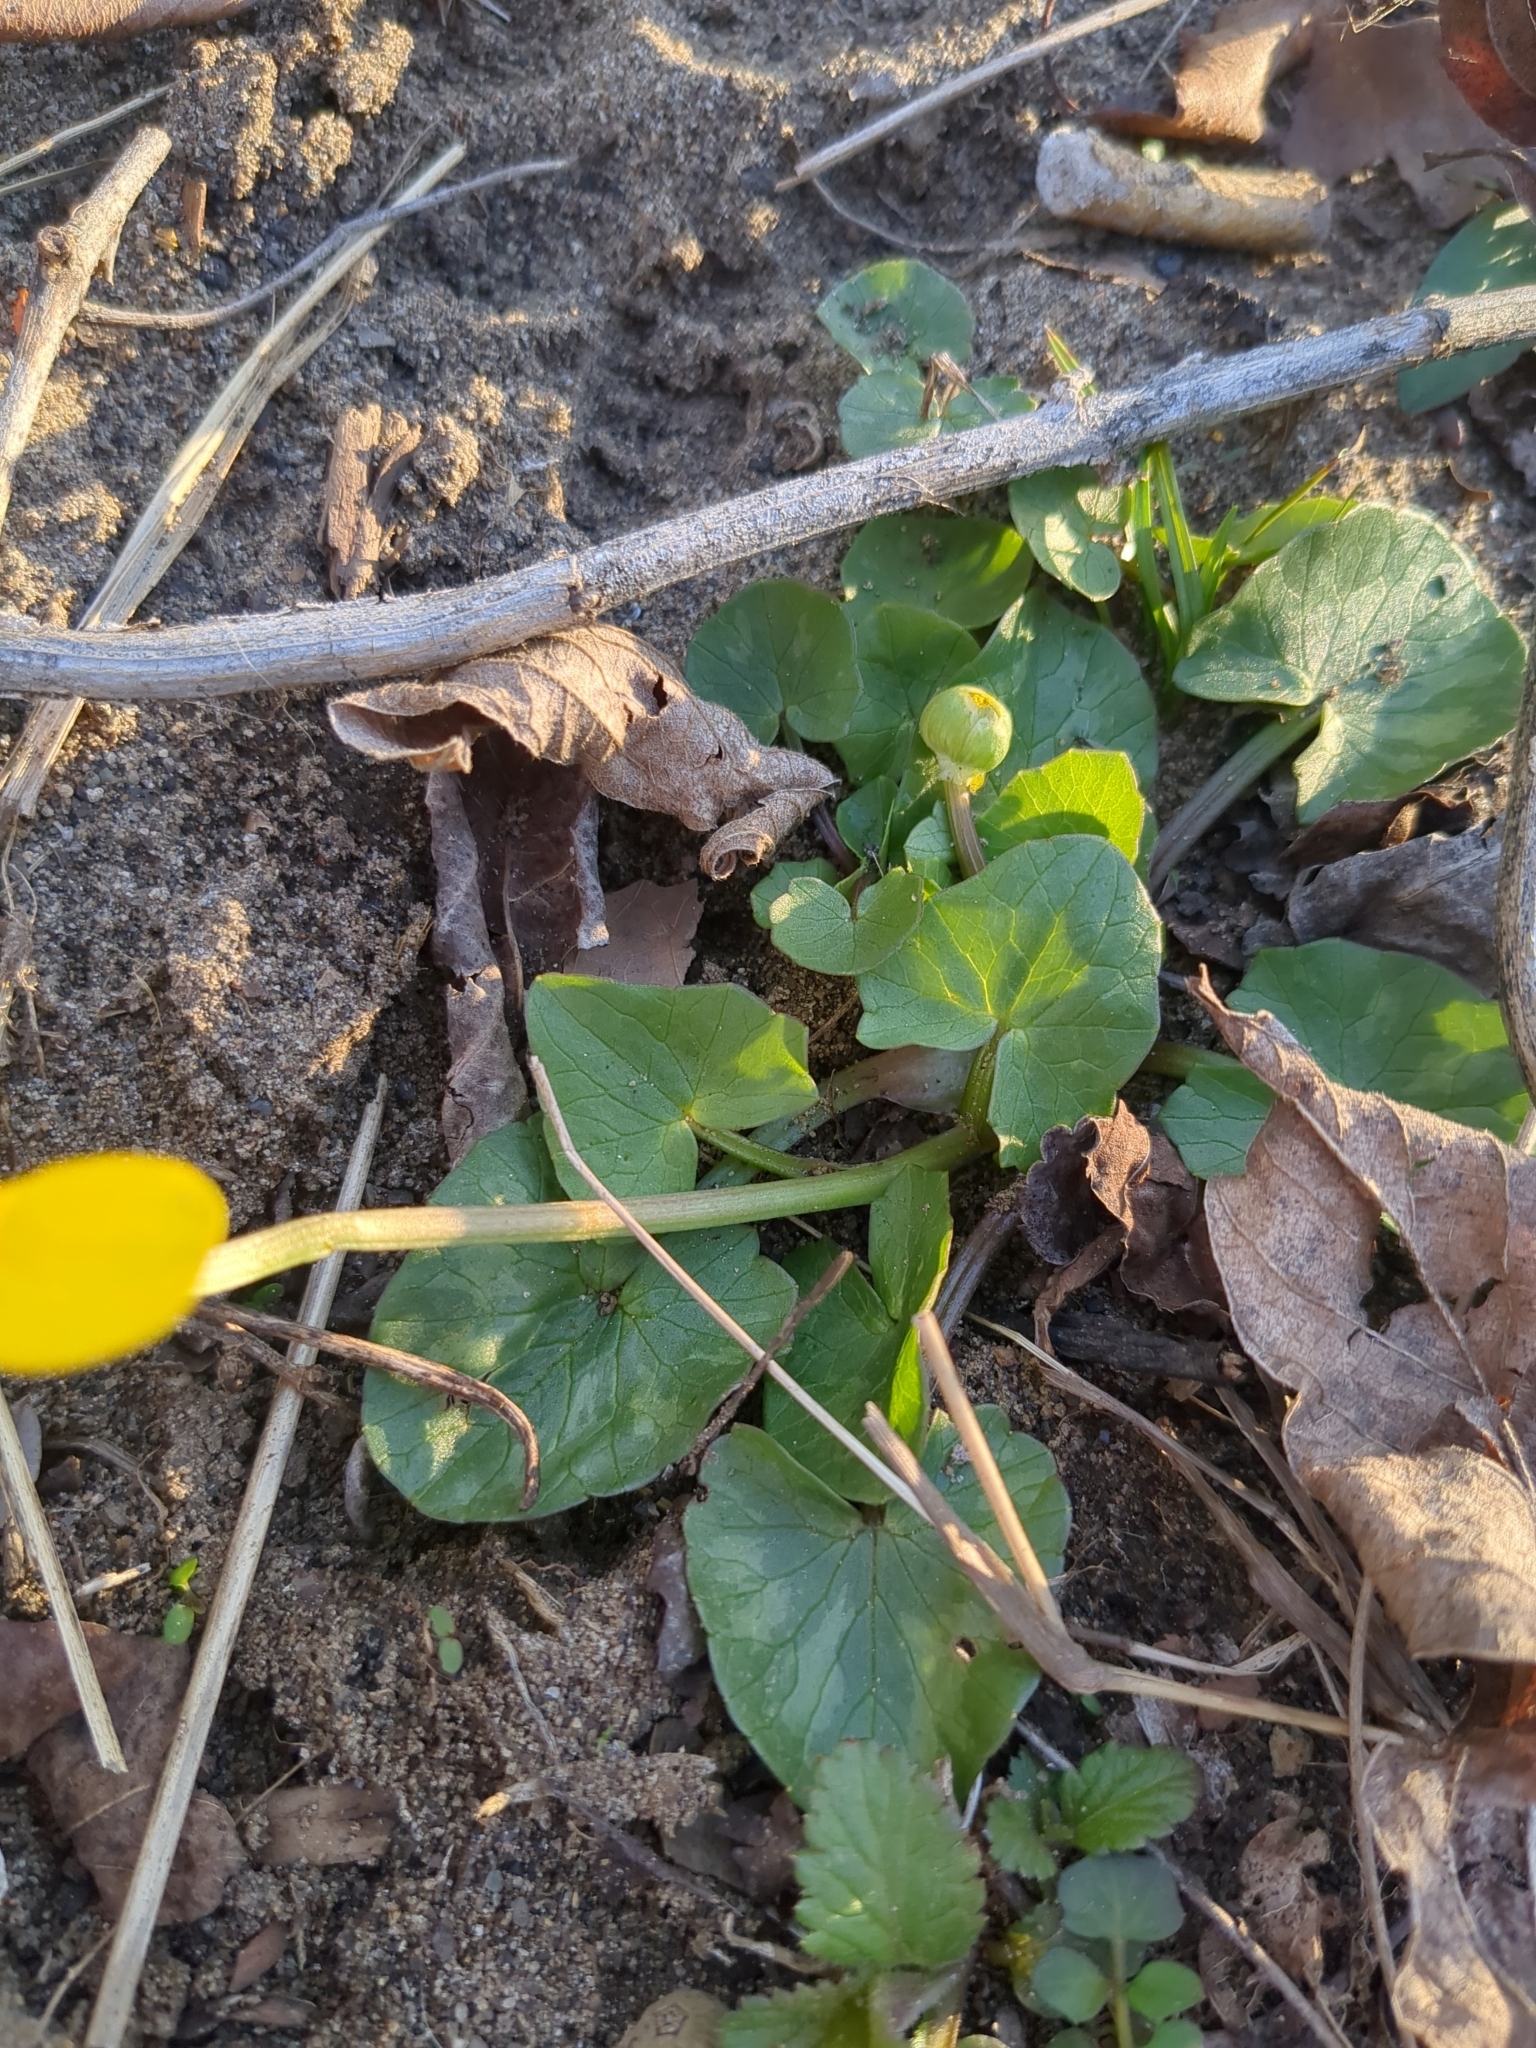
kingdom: Plantae
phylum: Tracheophyta
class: Magnoliopsida
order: Ranunculales
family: Ranunculaceae
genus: Ficaria
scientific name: Ficaria verna
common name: Lesser celandine
